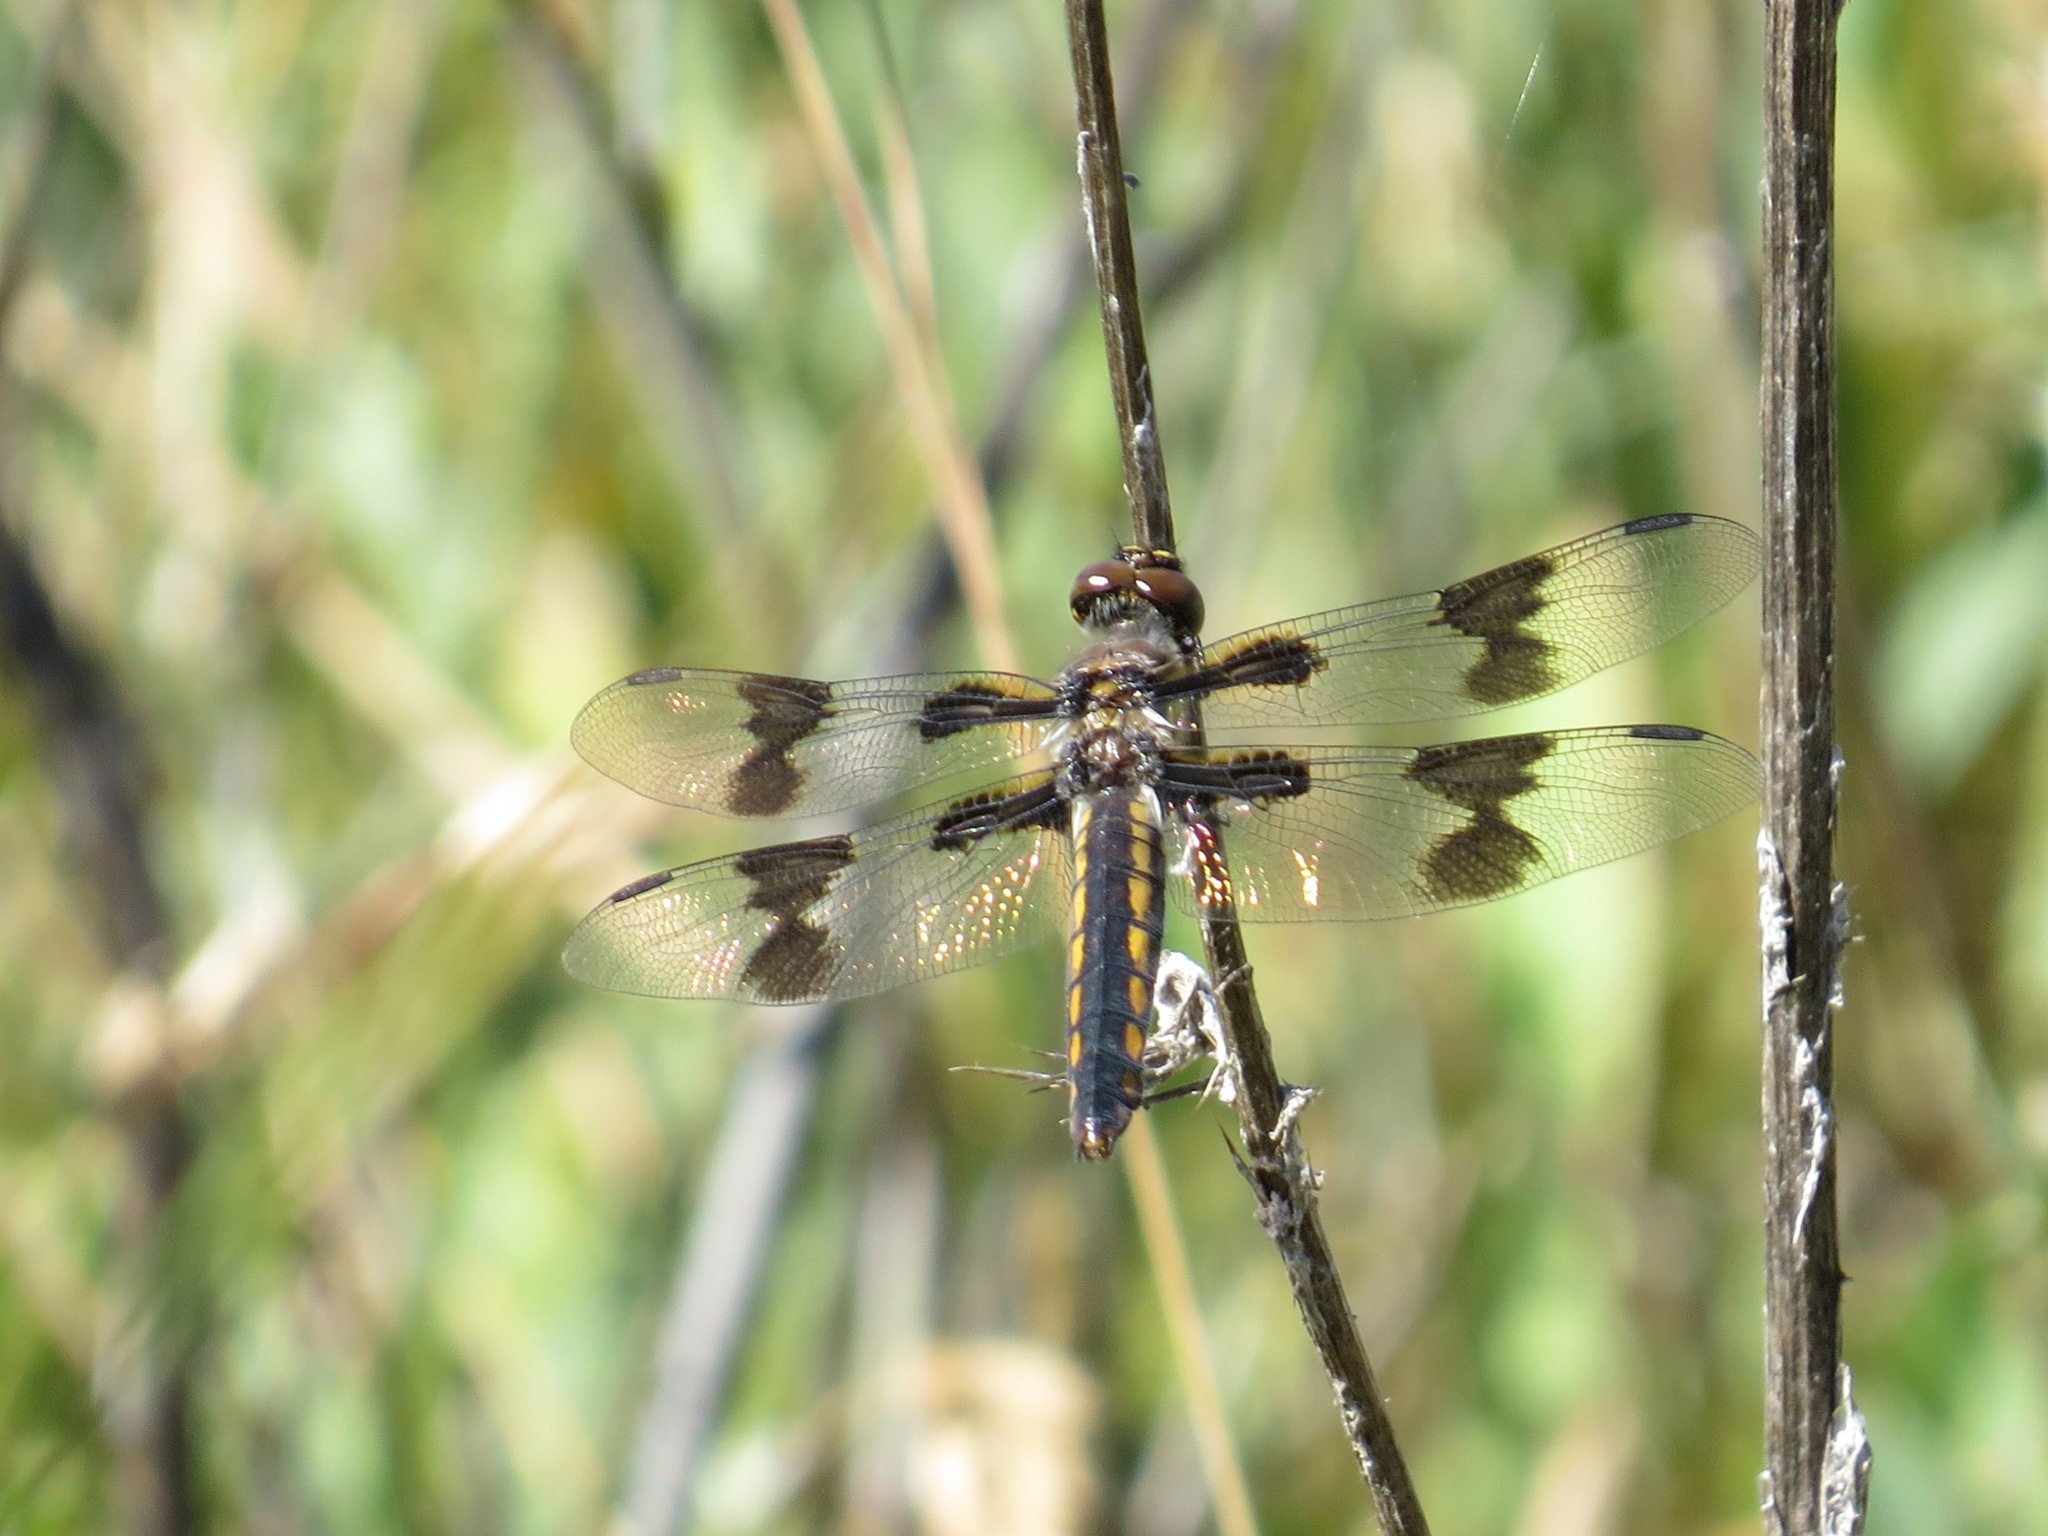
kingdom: Animalia
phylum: Arthropoda
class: Insecta
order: Odonata
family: Libellulidae
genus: Libellula
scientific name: Libellula forensis
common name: Eight-spotted skimmer
